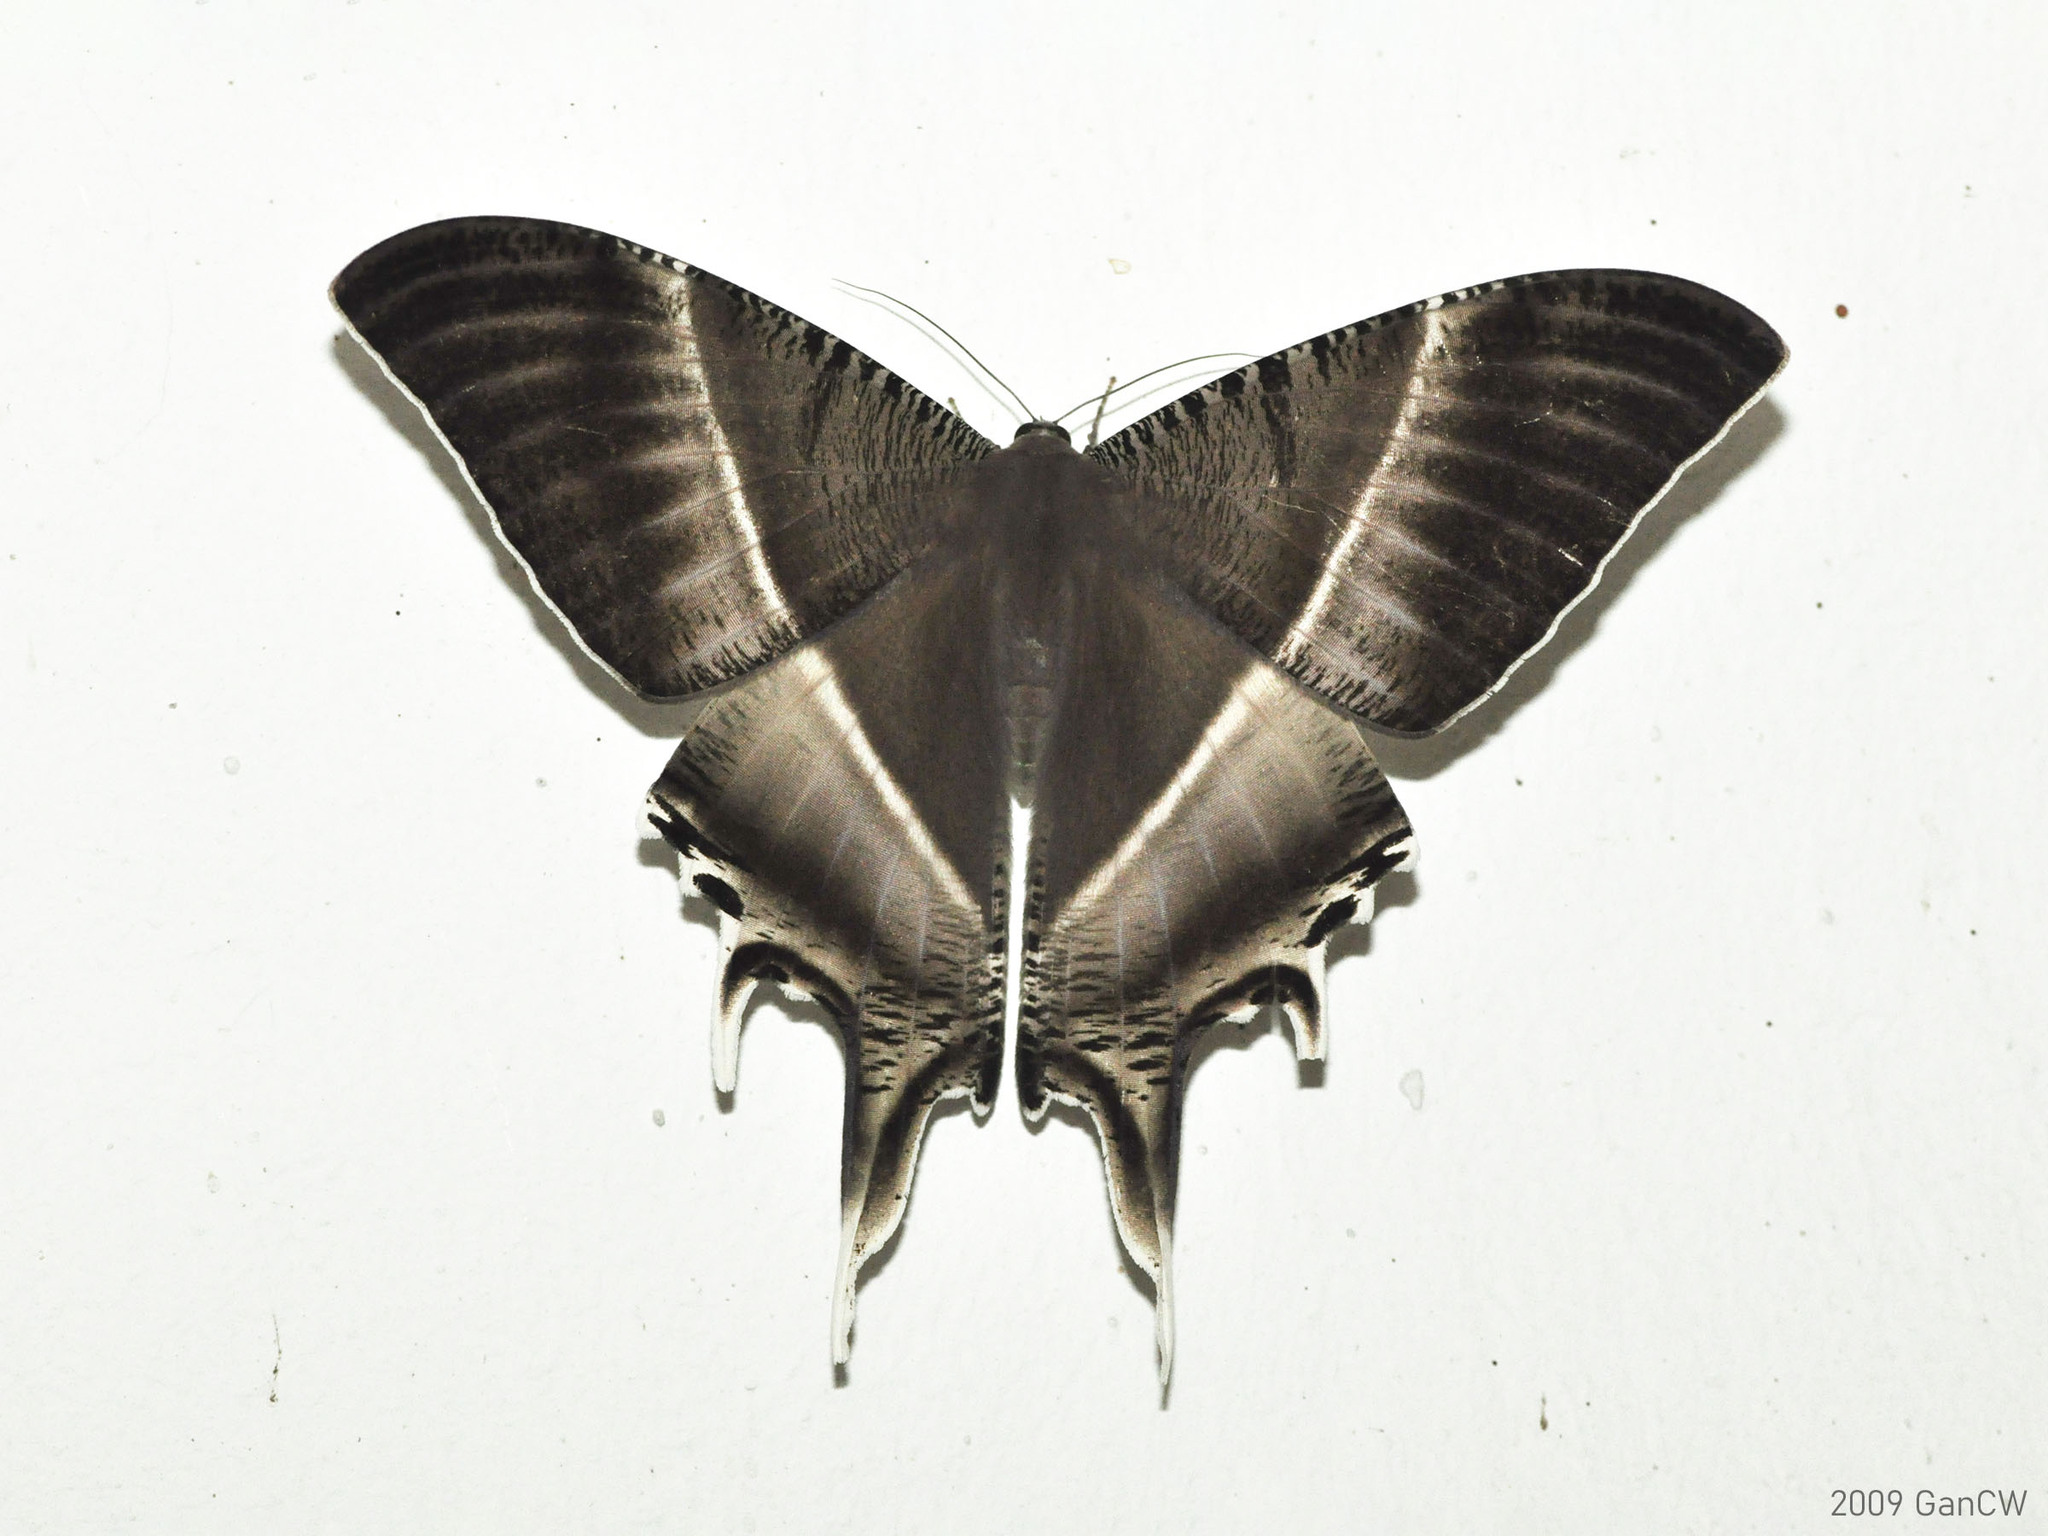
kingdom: Animalia
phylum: Arthropoda
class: Insecta
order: Lepidoptera
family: Uraniidae
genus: Lyssa
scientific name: Lyssa zampa
